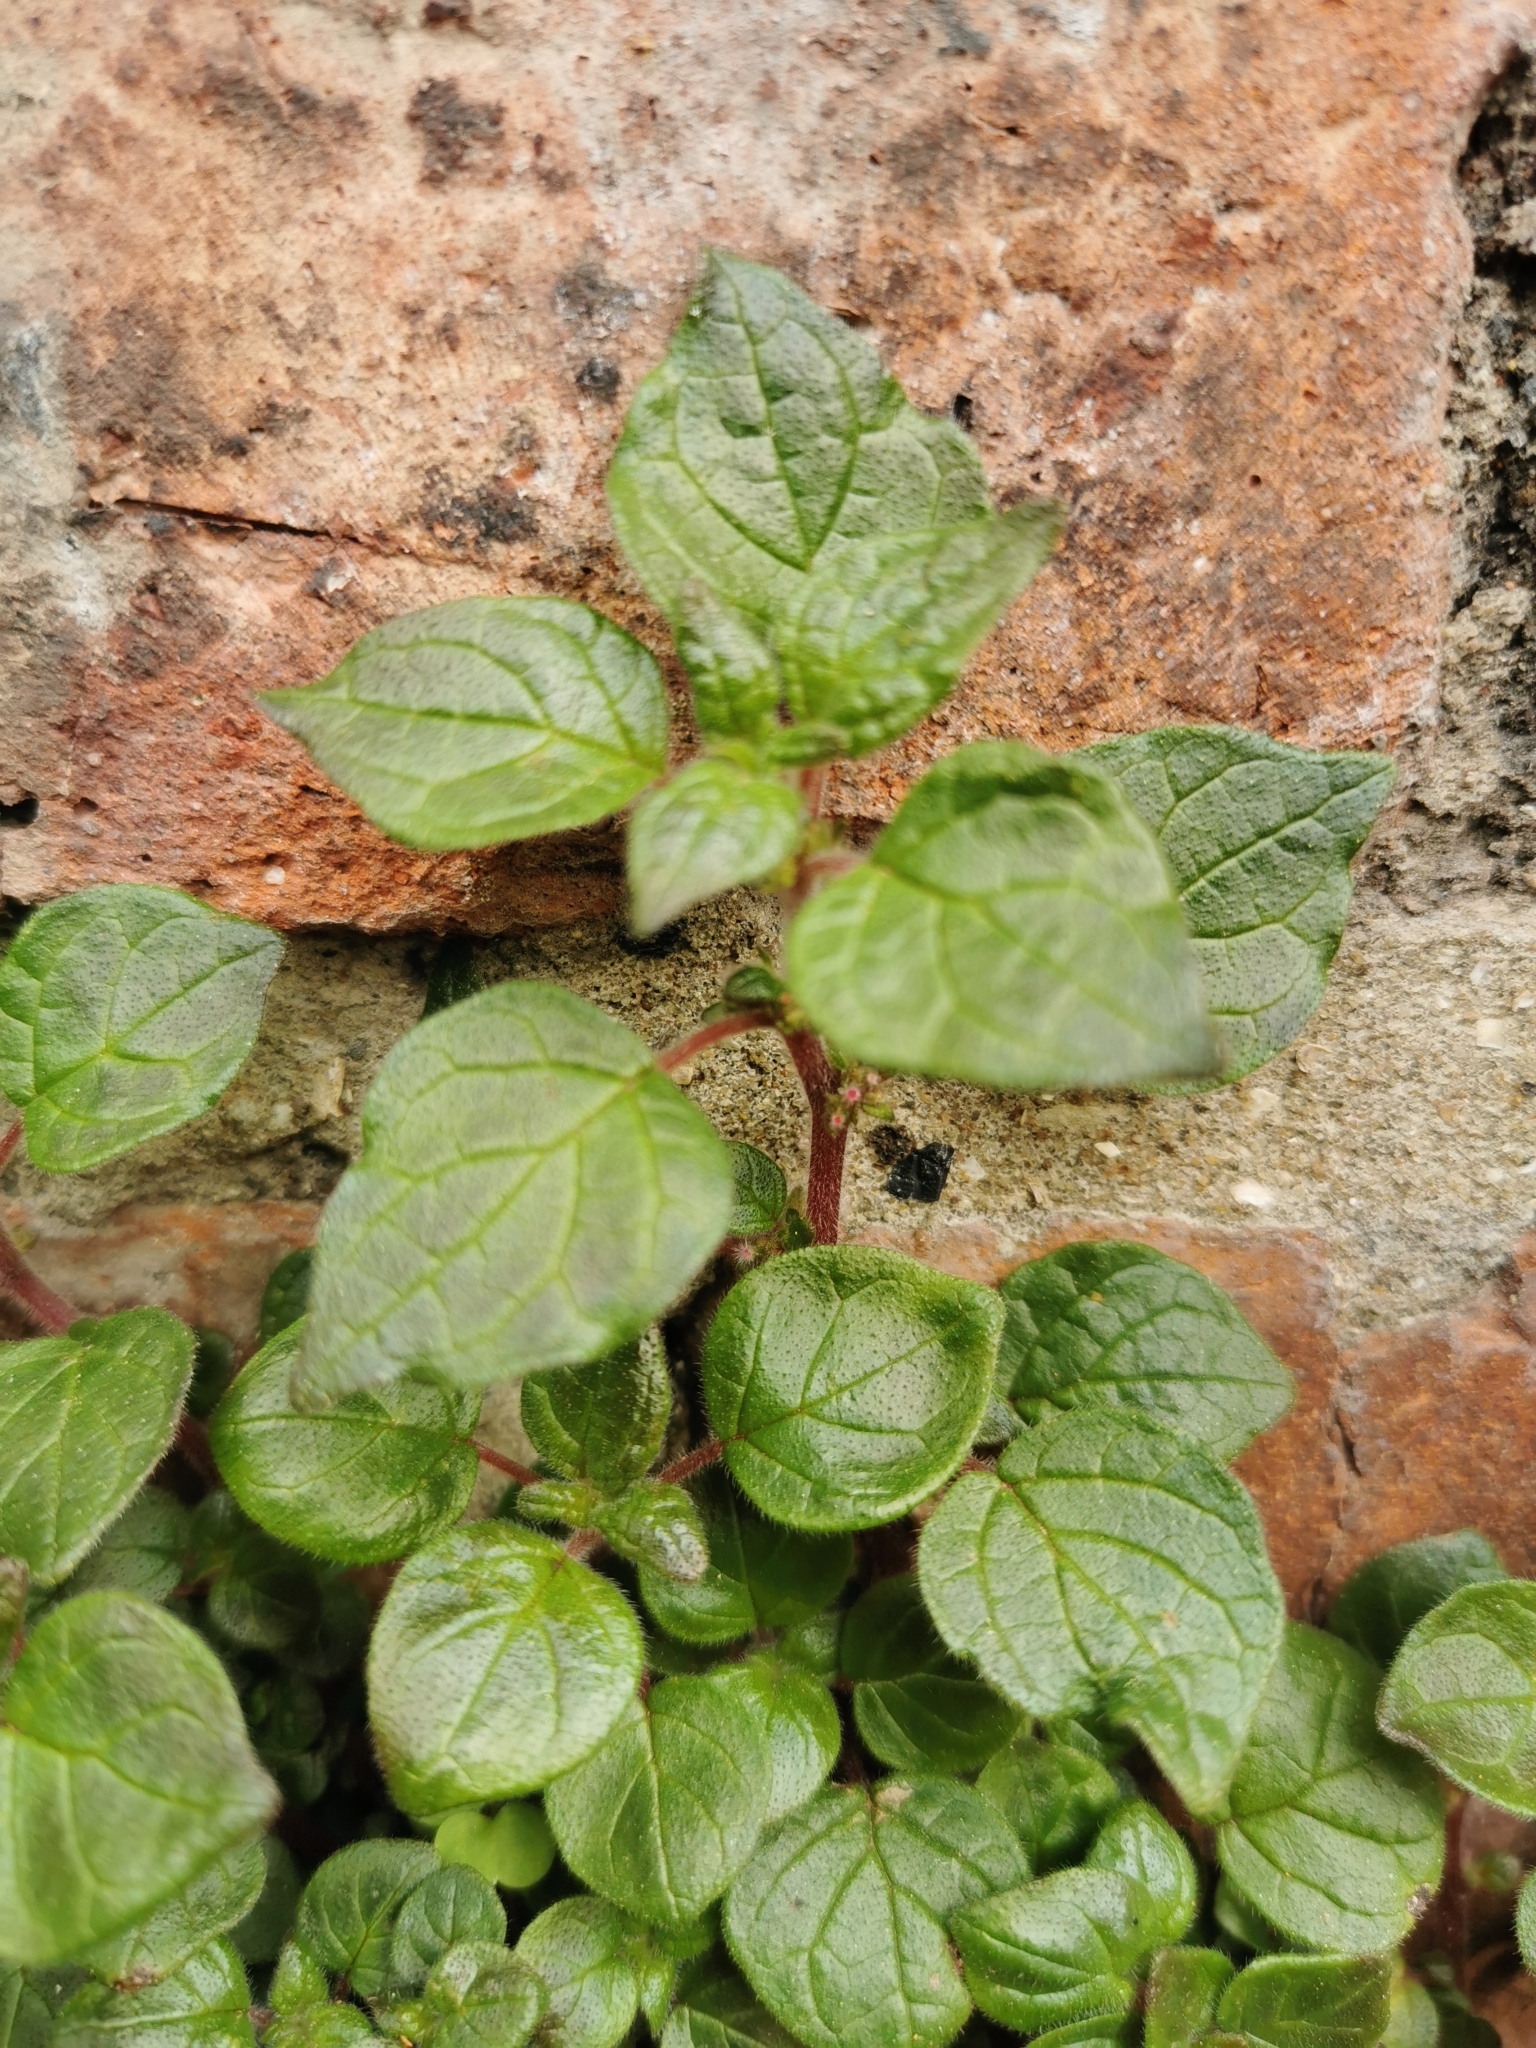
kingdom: Plantae
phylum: Tracheophyta
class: Magnoliopsida
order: Rosales
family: Urticaceae
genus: Parietaria
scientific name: Parietaria judaica
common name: Pellitory-of-the-wall
